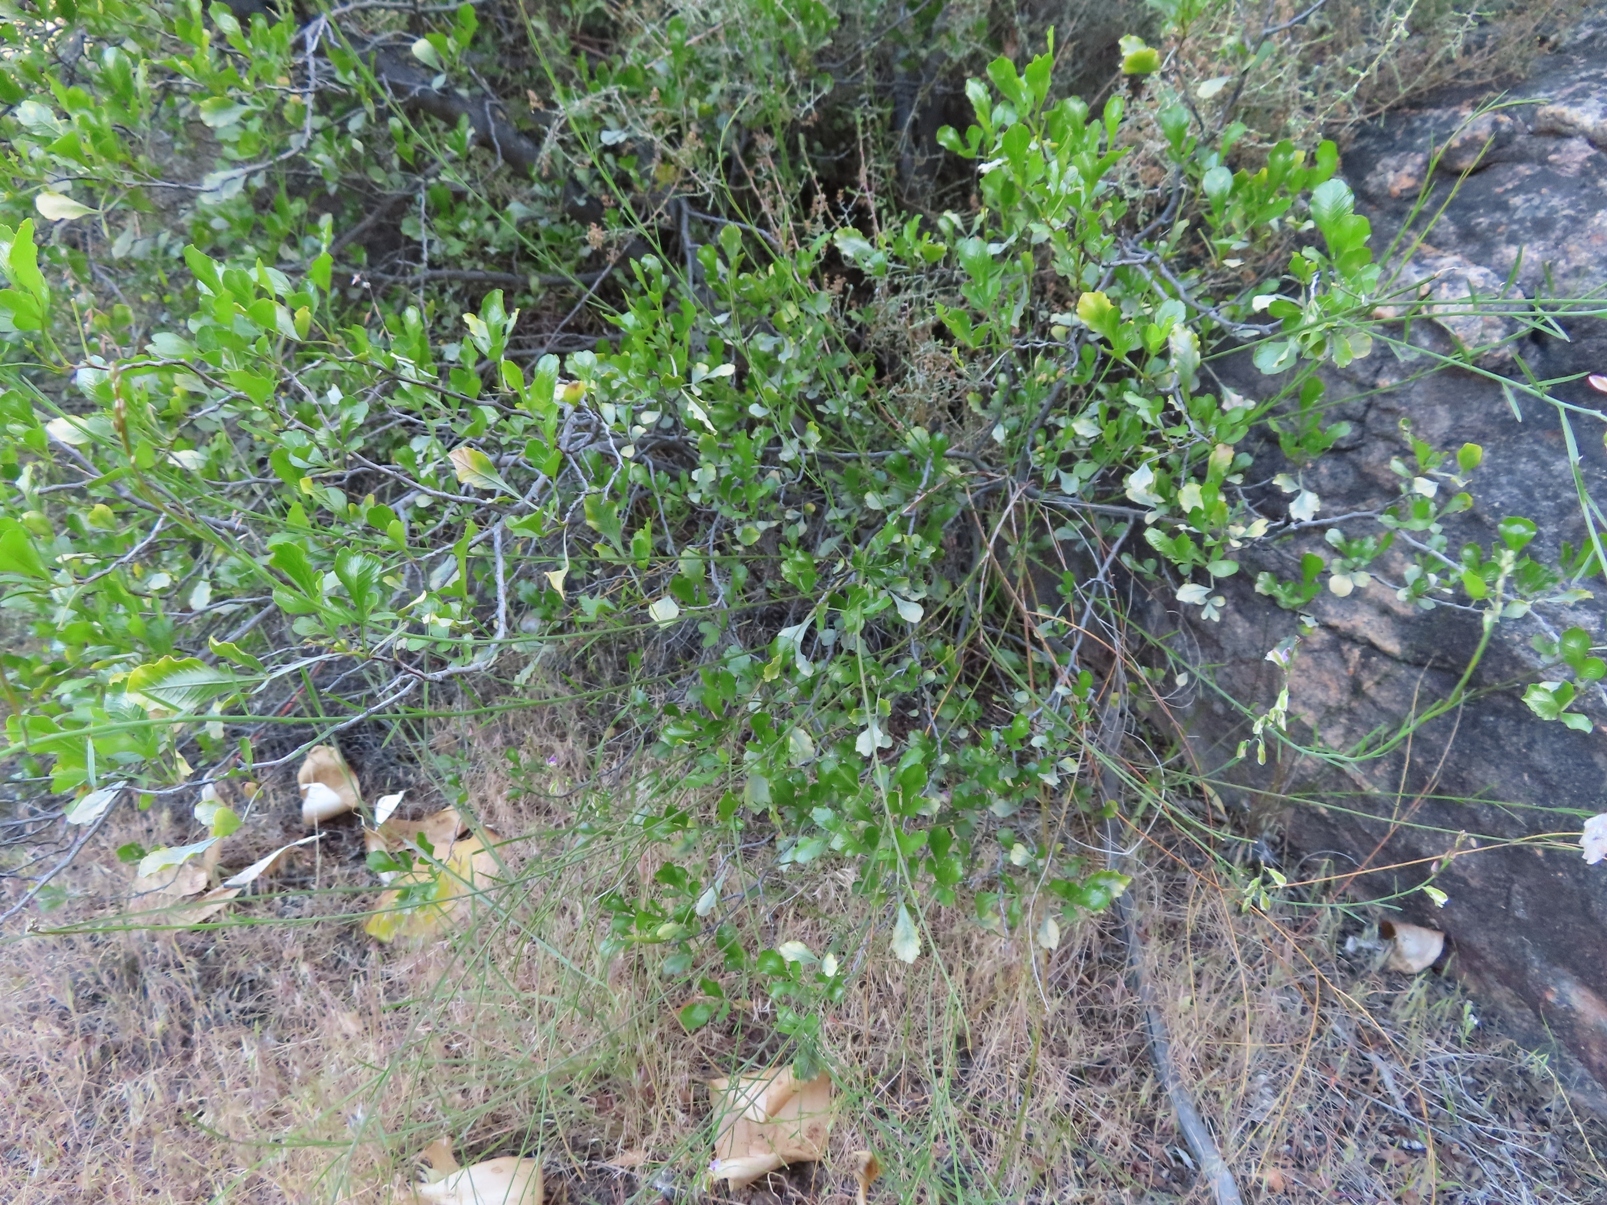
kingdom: Plantae
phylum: Tracheophyta
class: Magnoliopsida
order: Sapindales
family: Anacardiaceae
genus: Searsia
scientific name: Searsia undulata
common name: Namaqua kunibush
